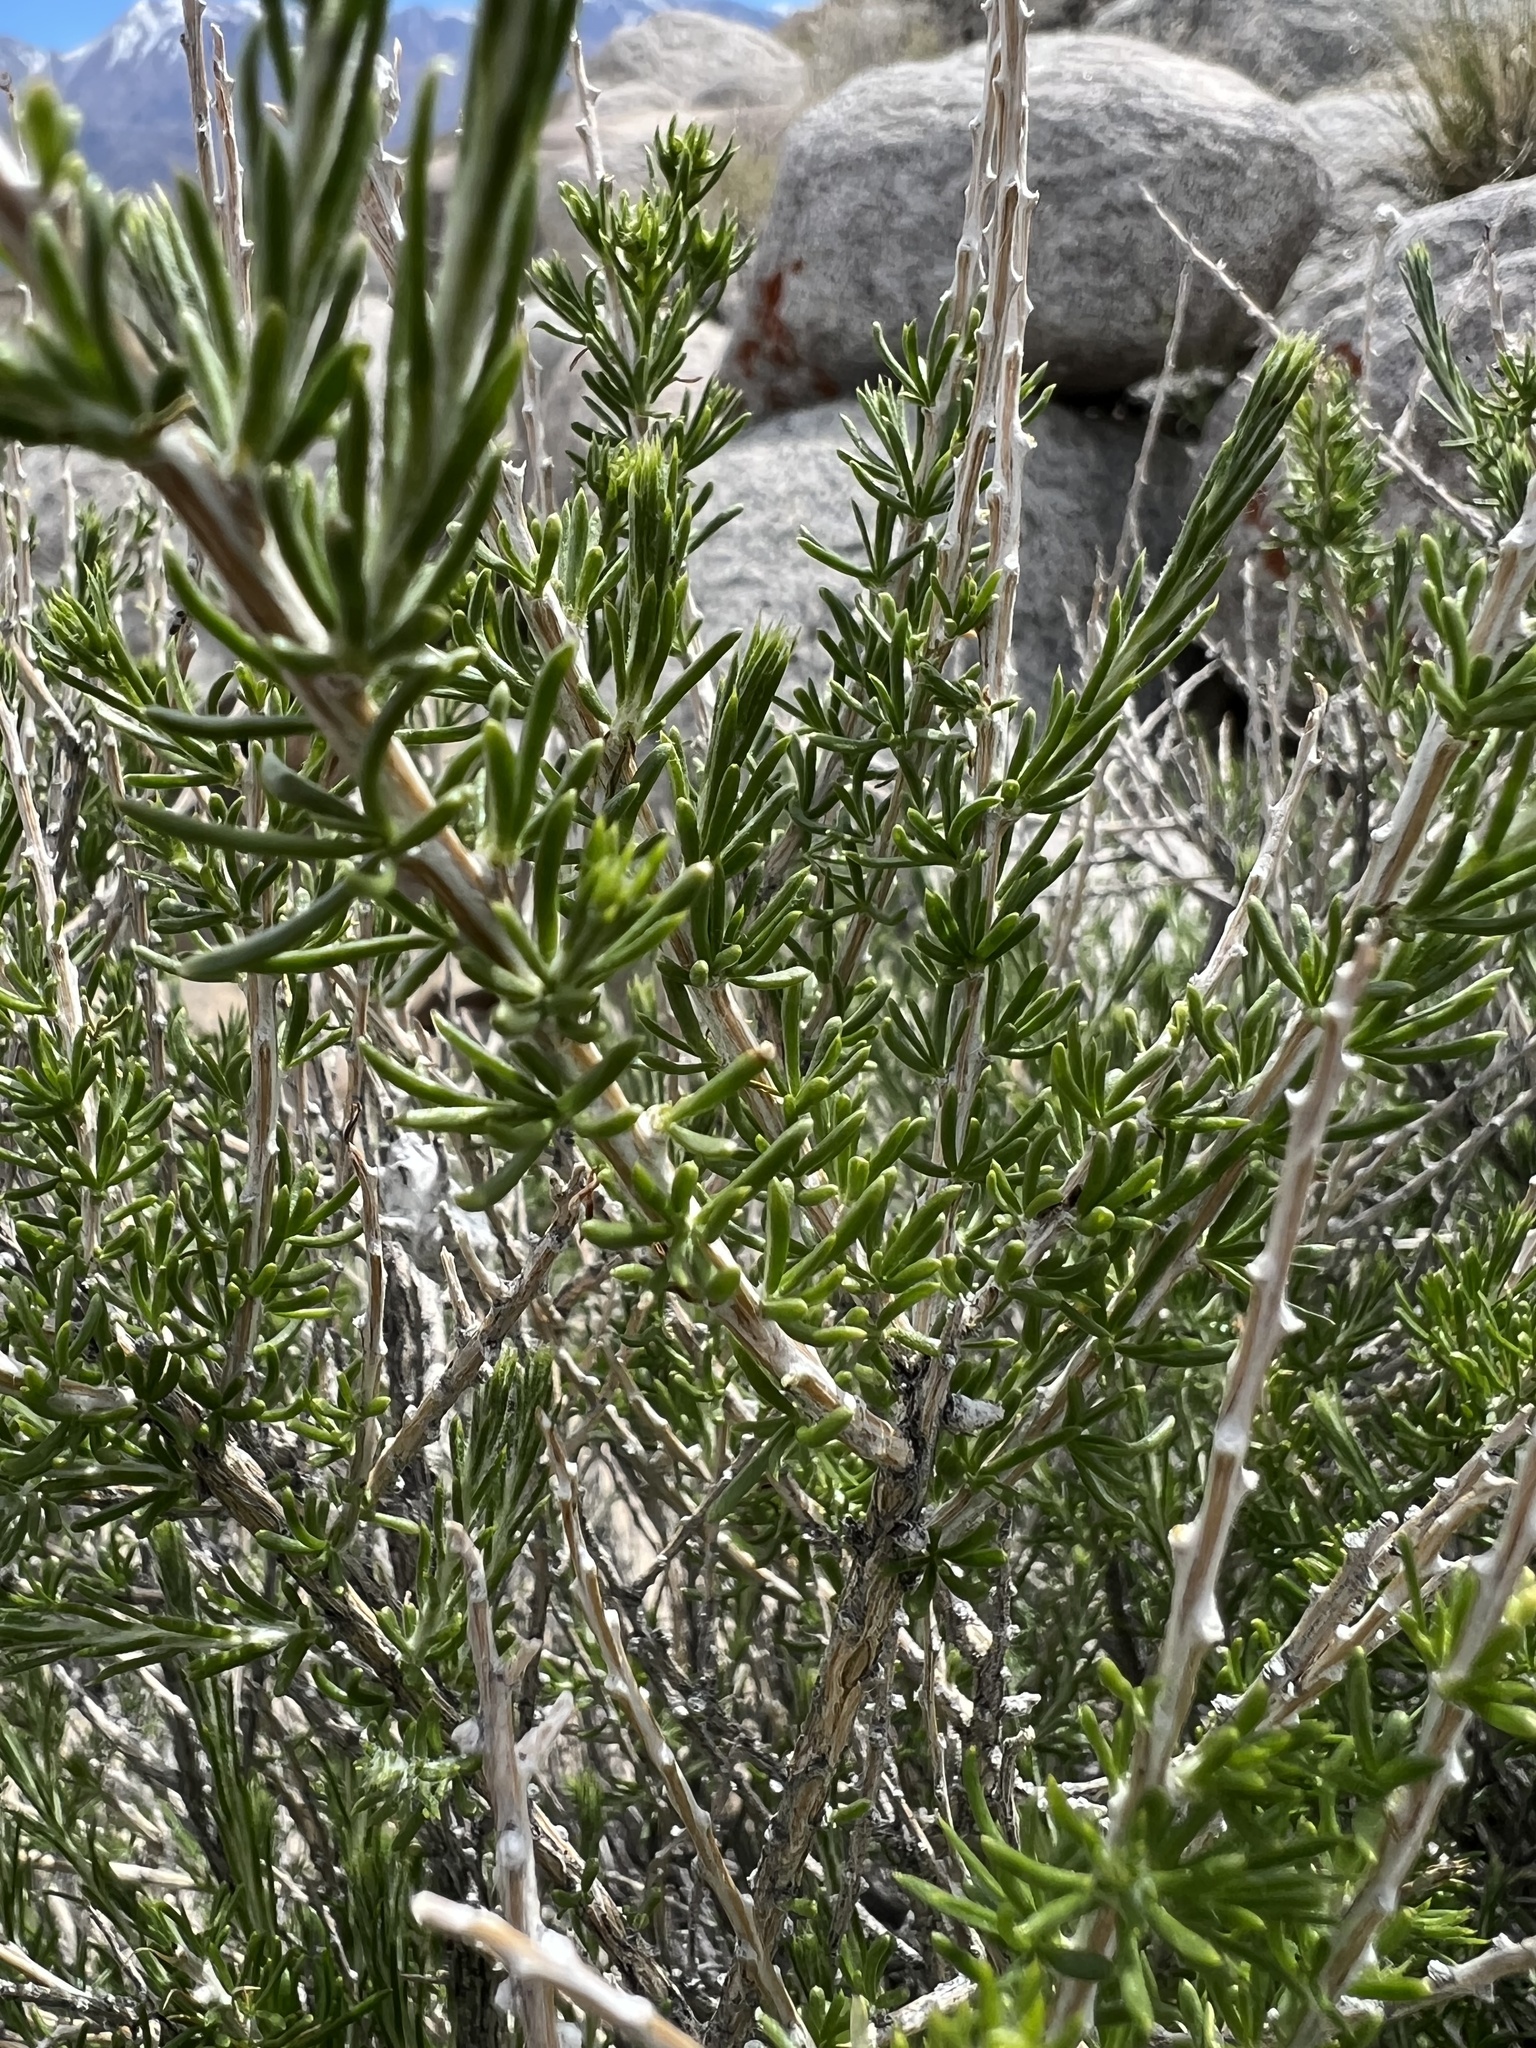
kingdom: Plantae
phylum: Tracheophyta
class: Magnoliopsida
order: Asterales
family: Asteraceae
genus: Tetradymia
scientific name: Tetradymia glabrata
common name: Smooth tetradymia
